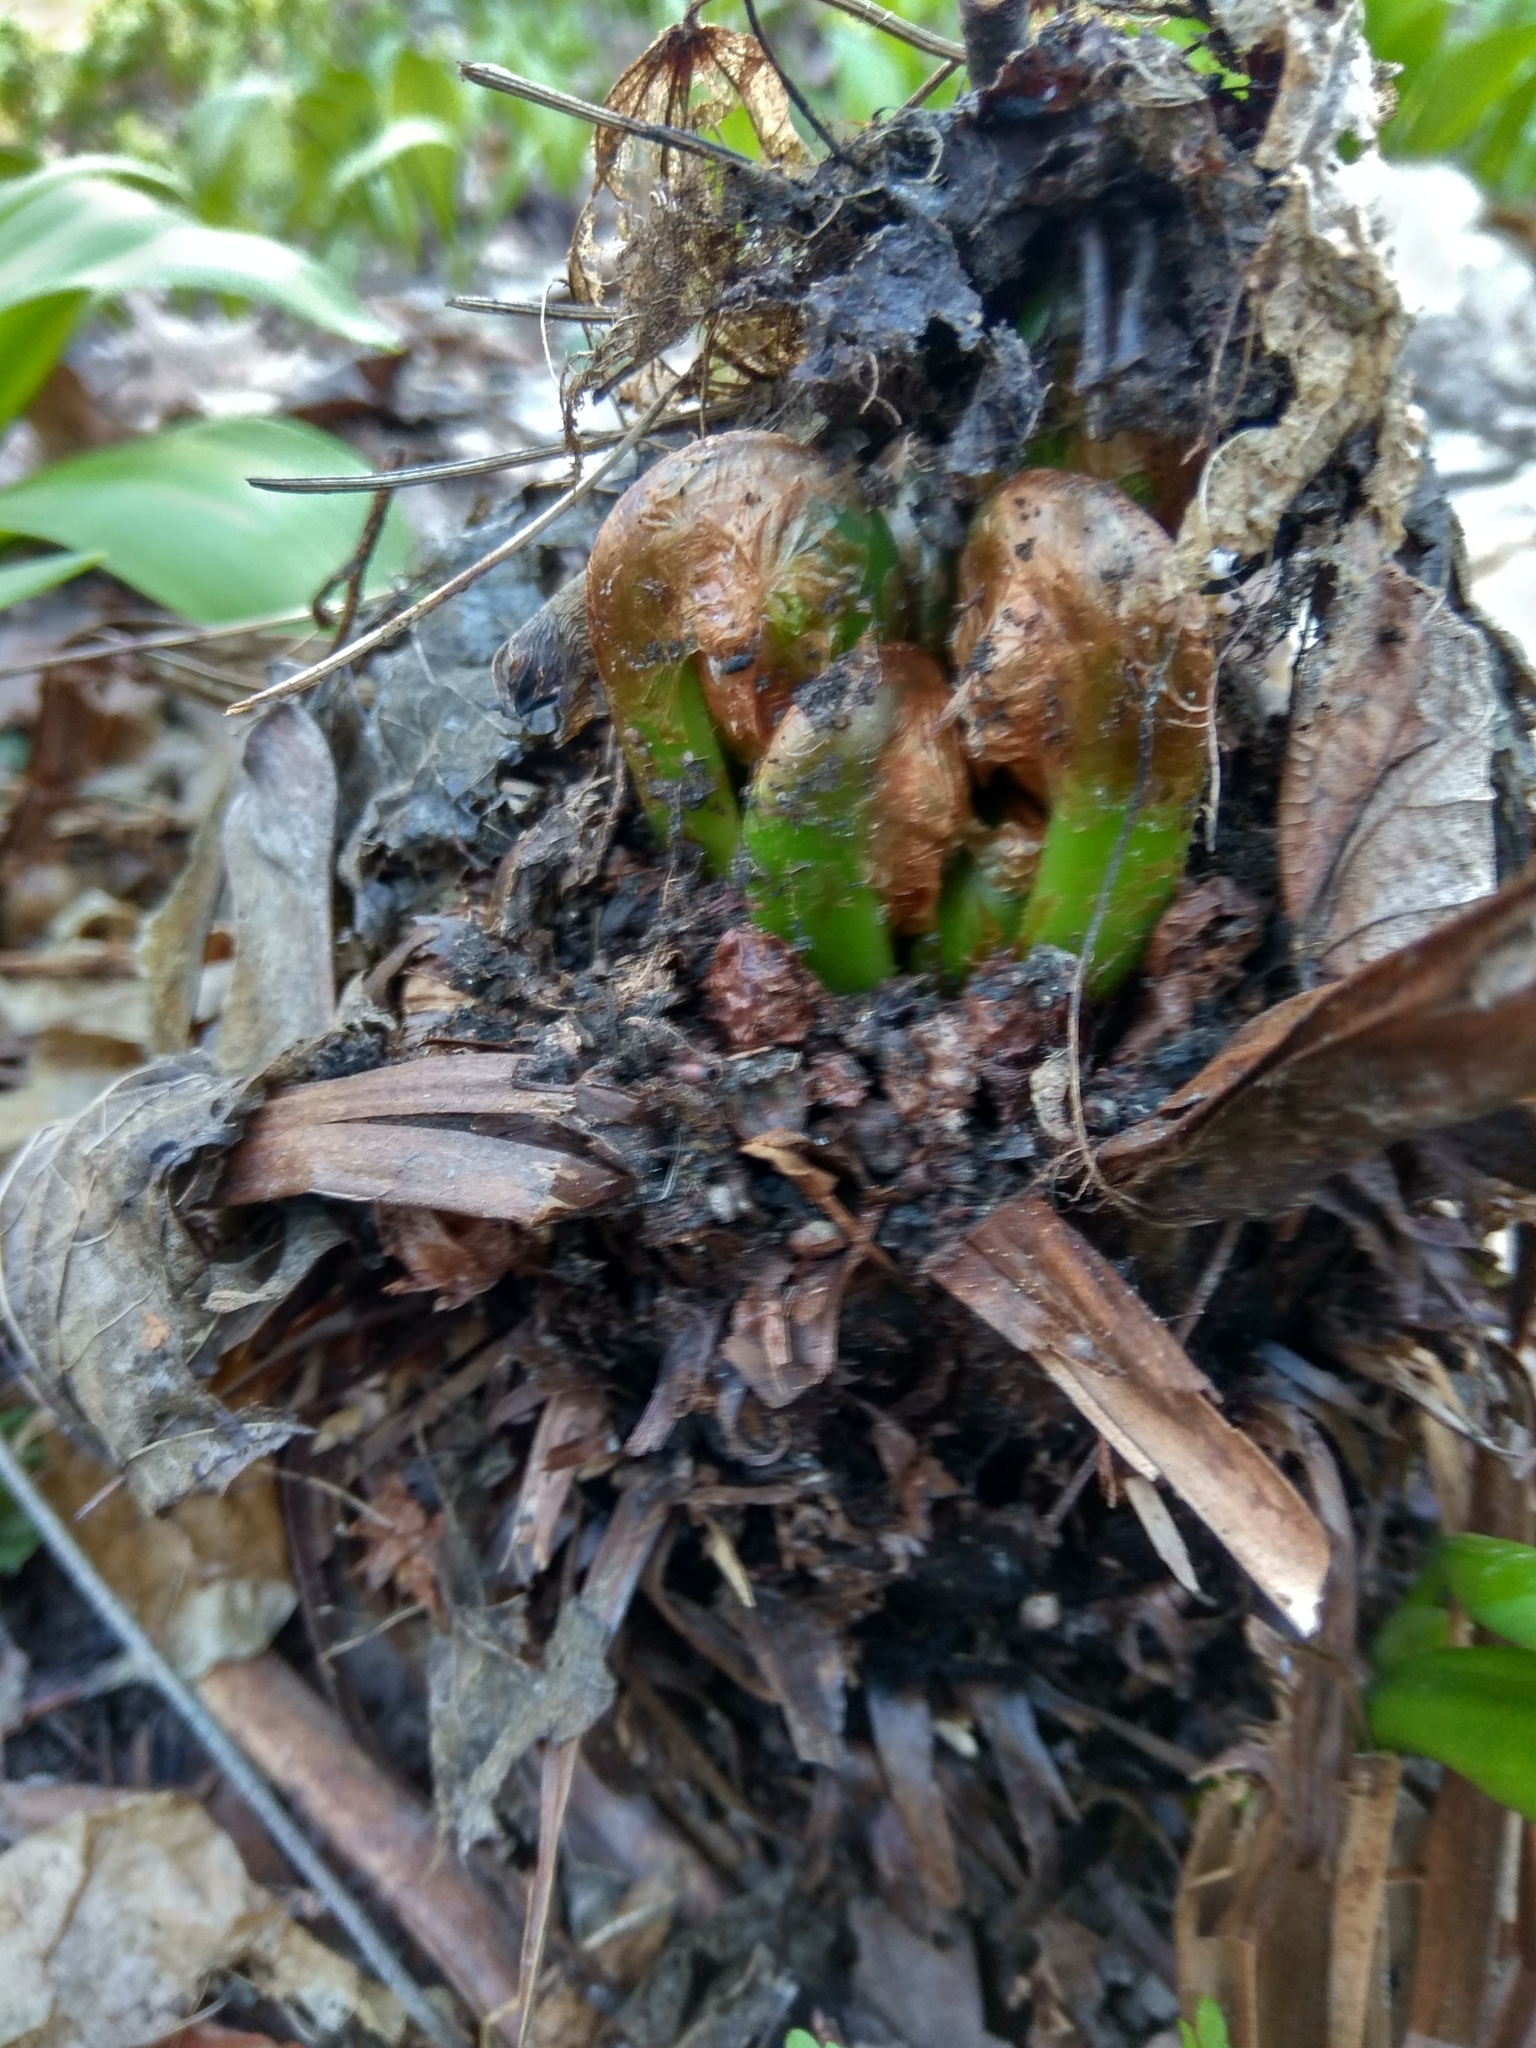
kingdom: Plantae
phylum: Tracheophyta
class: Polypodiopsida
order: Polypodiales
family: Onocleaceae
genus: Matteuccia
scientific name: Matteuccia struthiopteris
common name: Ostrich fern
